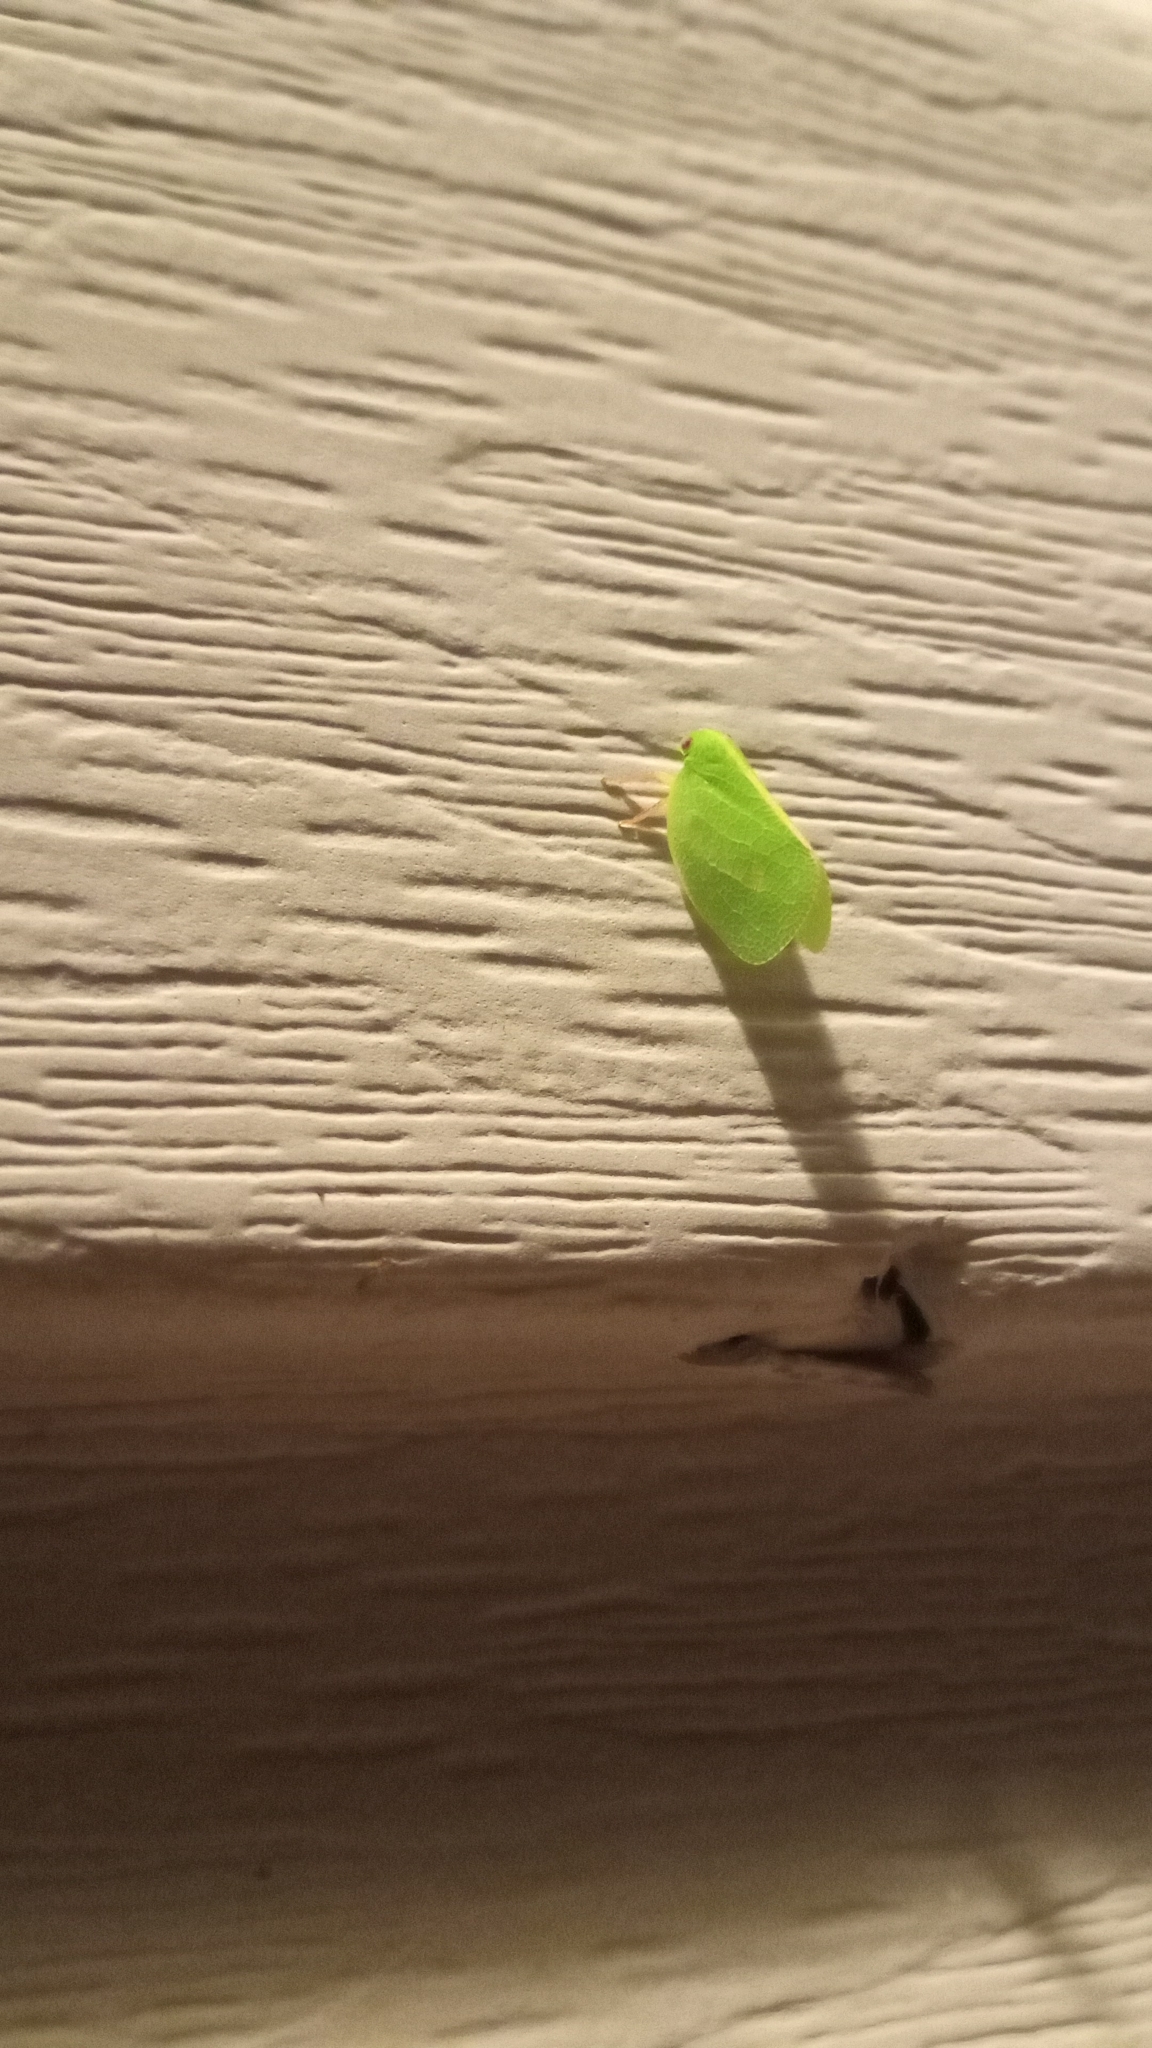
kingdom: Animalia
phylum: Arthropoda
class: Insecta
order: Hemiptera
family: Acanaloniidae
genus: Acanalonia
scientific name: Acanalonia servillei
